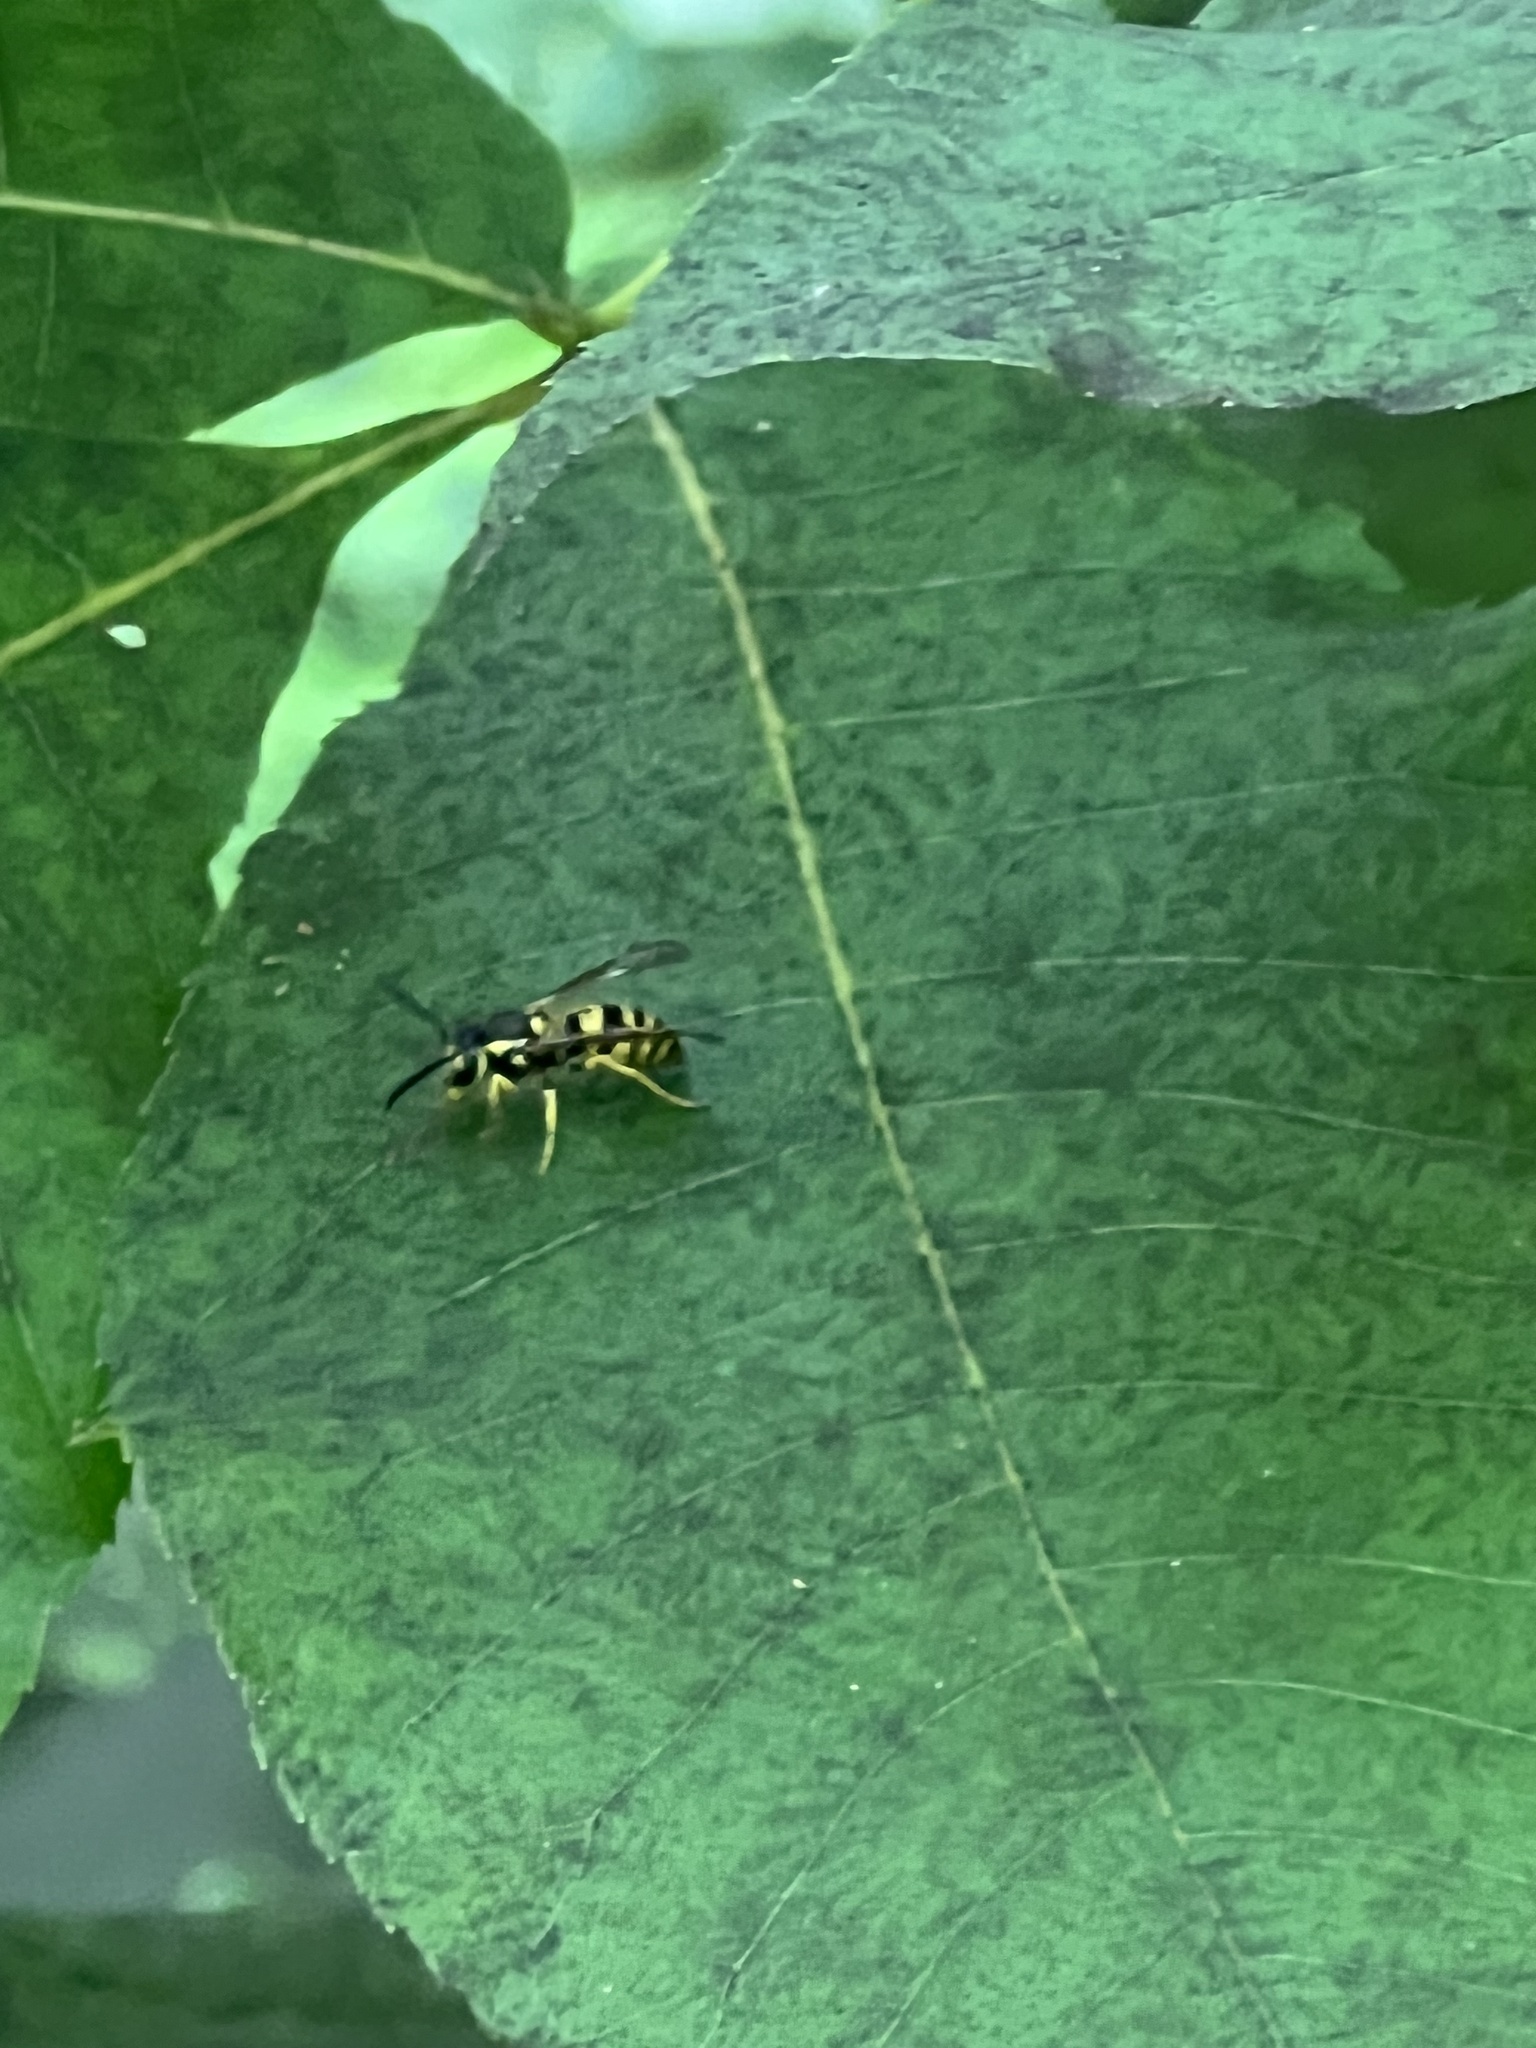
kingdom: Animalia
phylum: Arthropoda
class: Insecta
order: Hymenoptera
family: Vespidae
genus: Vespula
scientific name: Vespula maculifrons
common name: Eastern yellowjacket
